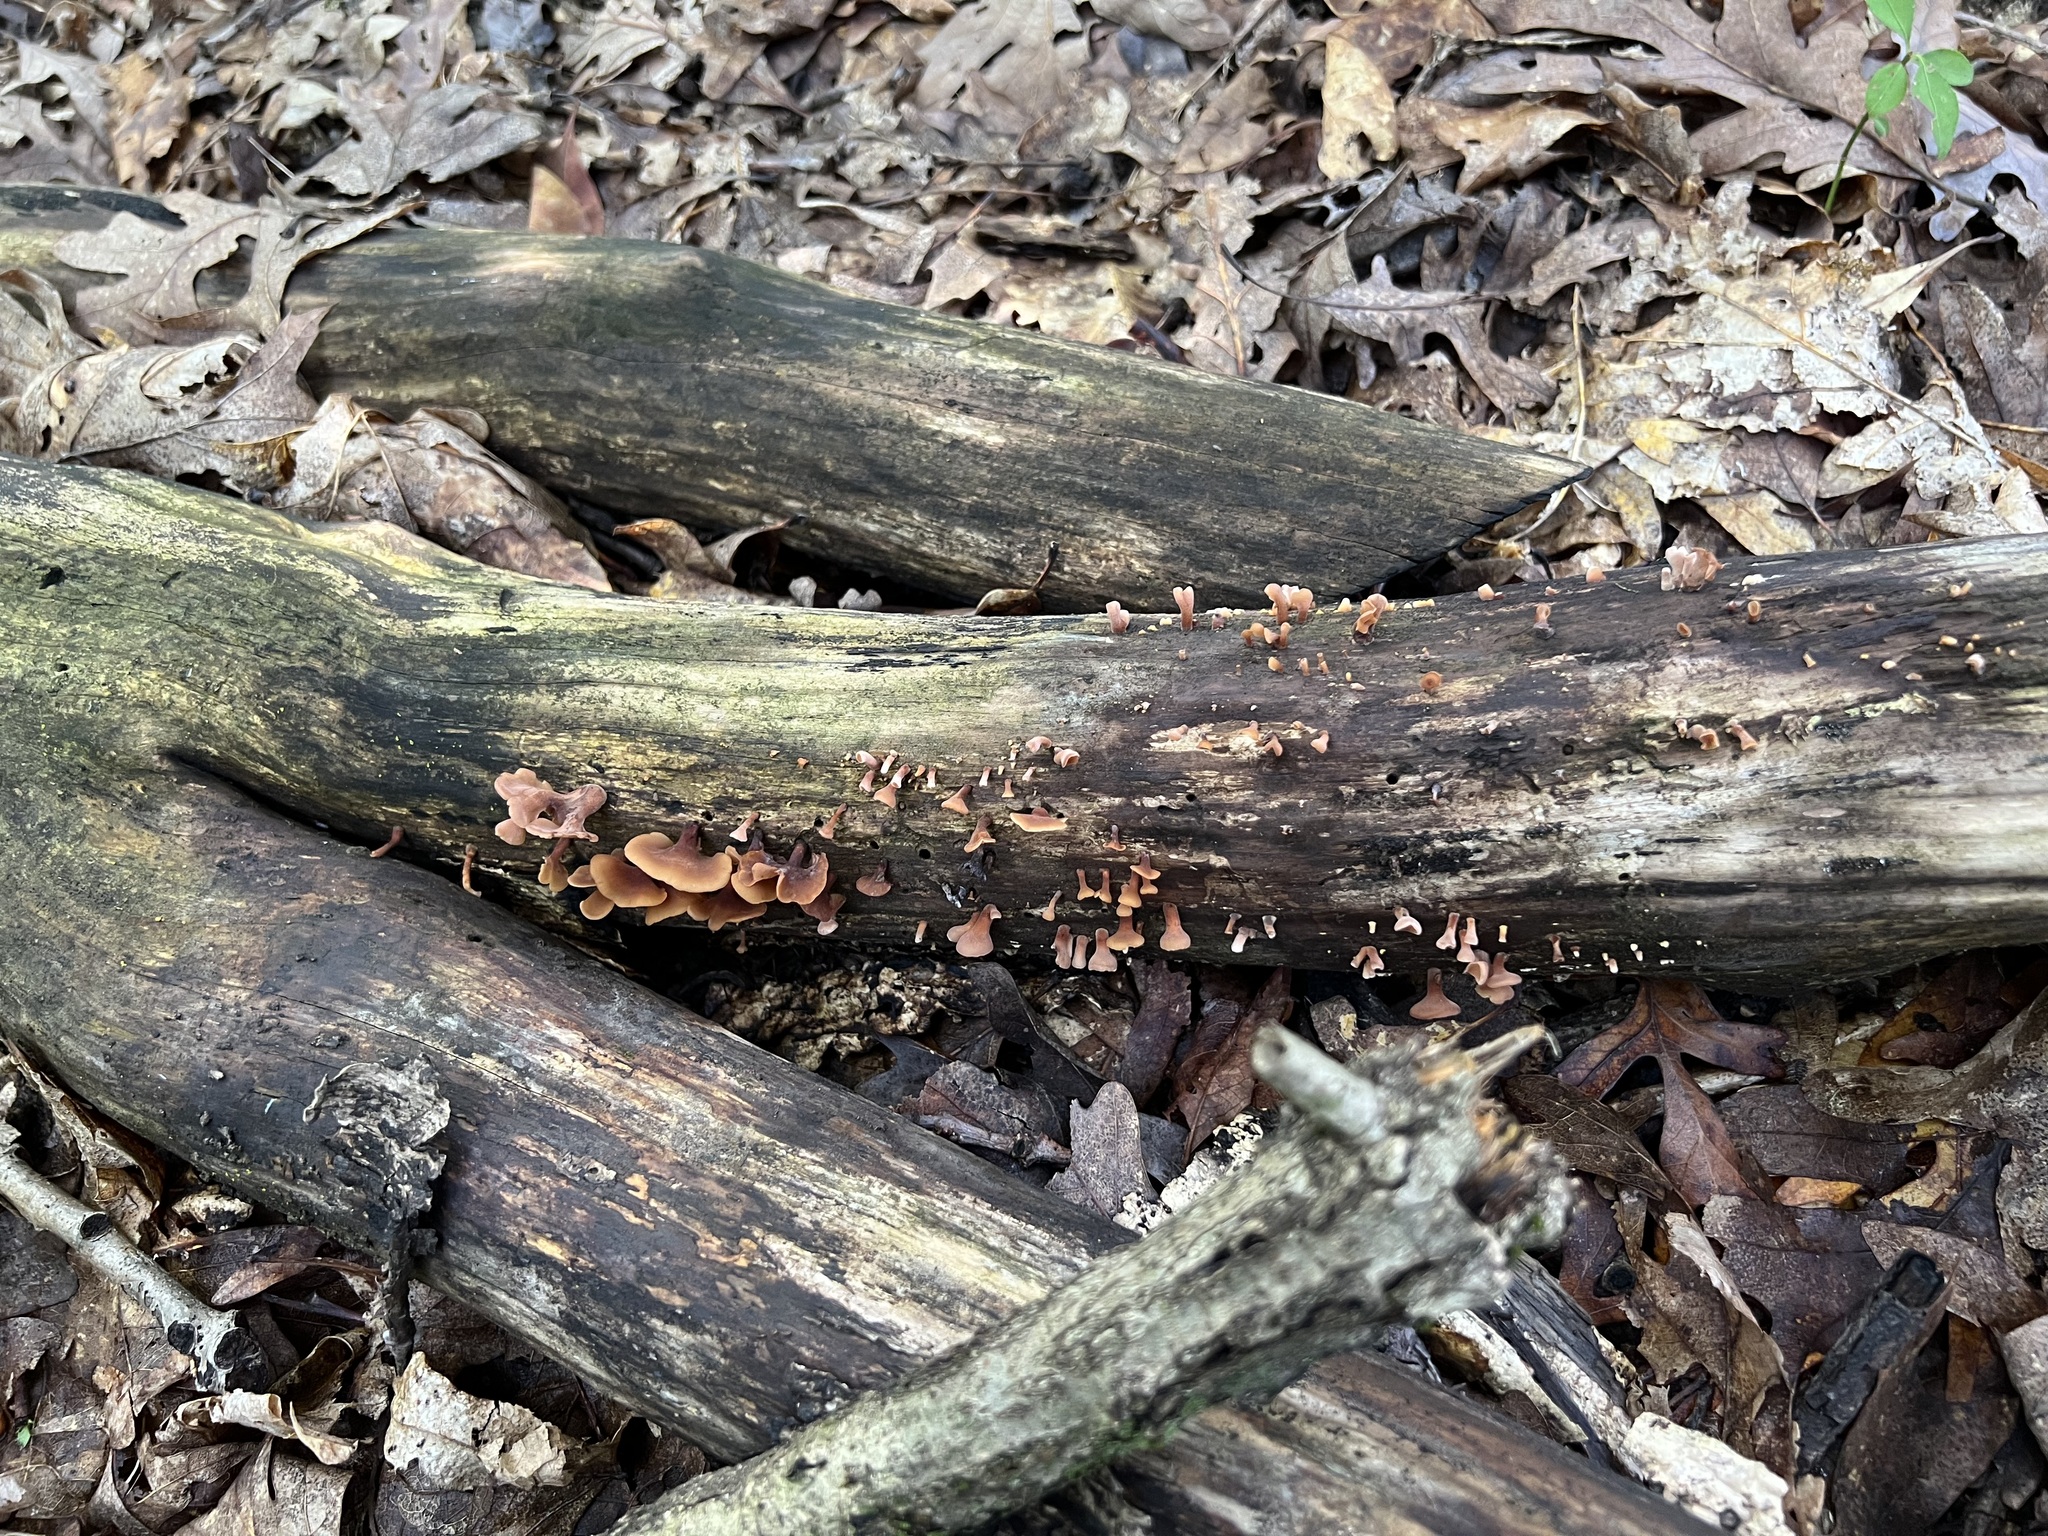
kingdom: Fungi
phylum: Basidiomycota
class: Dacrymycetes
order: Dacrymycetales
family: Dacrymycetaceae
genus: Dacryopinax
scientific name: Dacryopinax elegans
